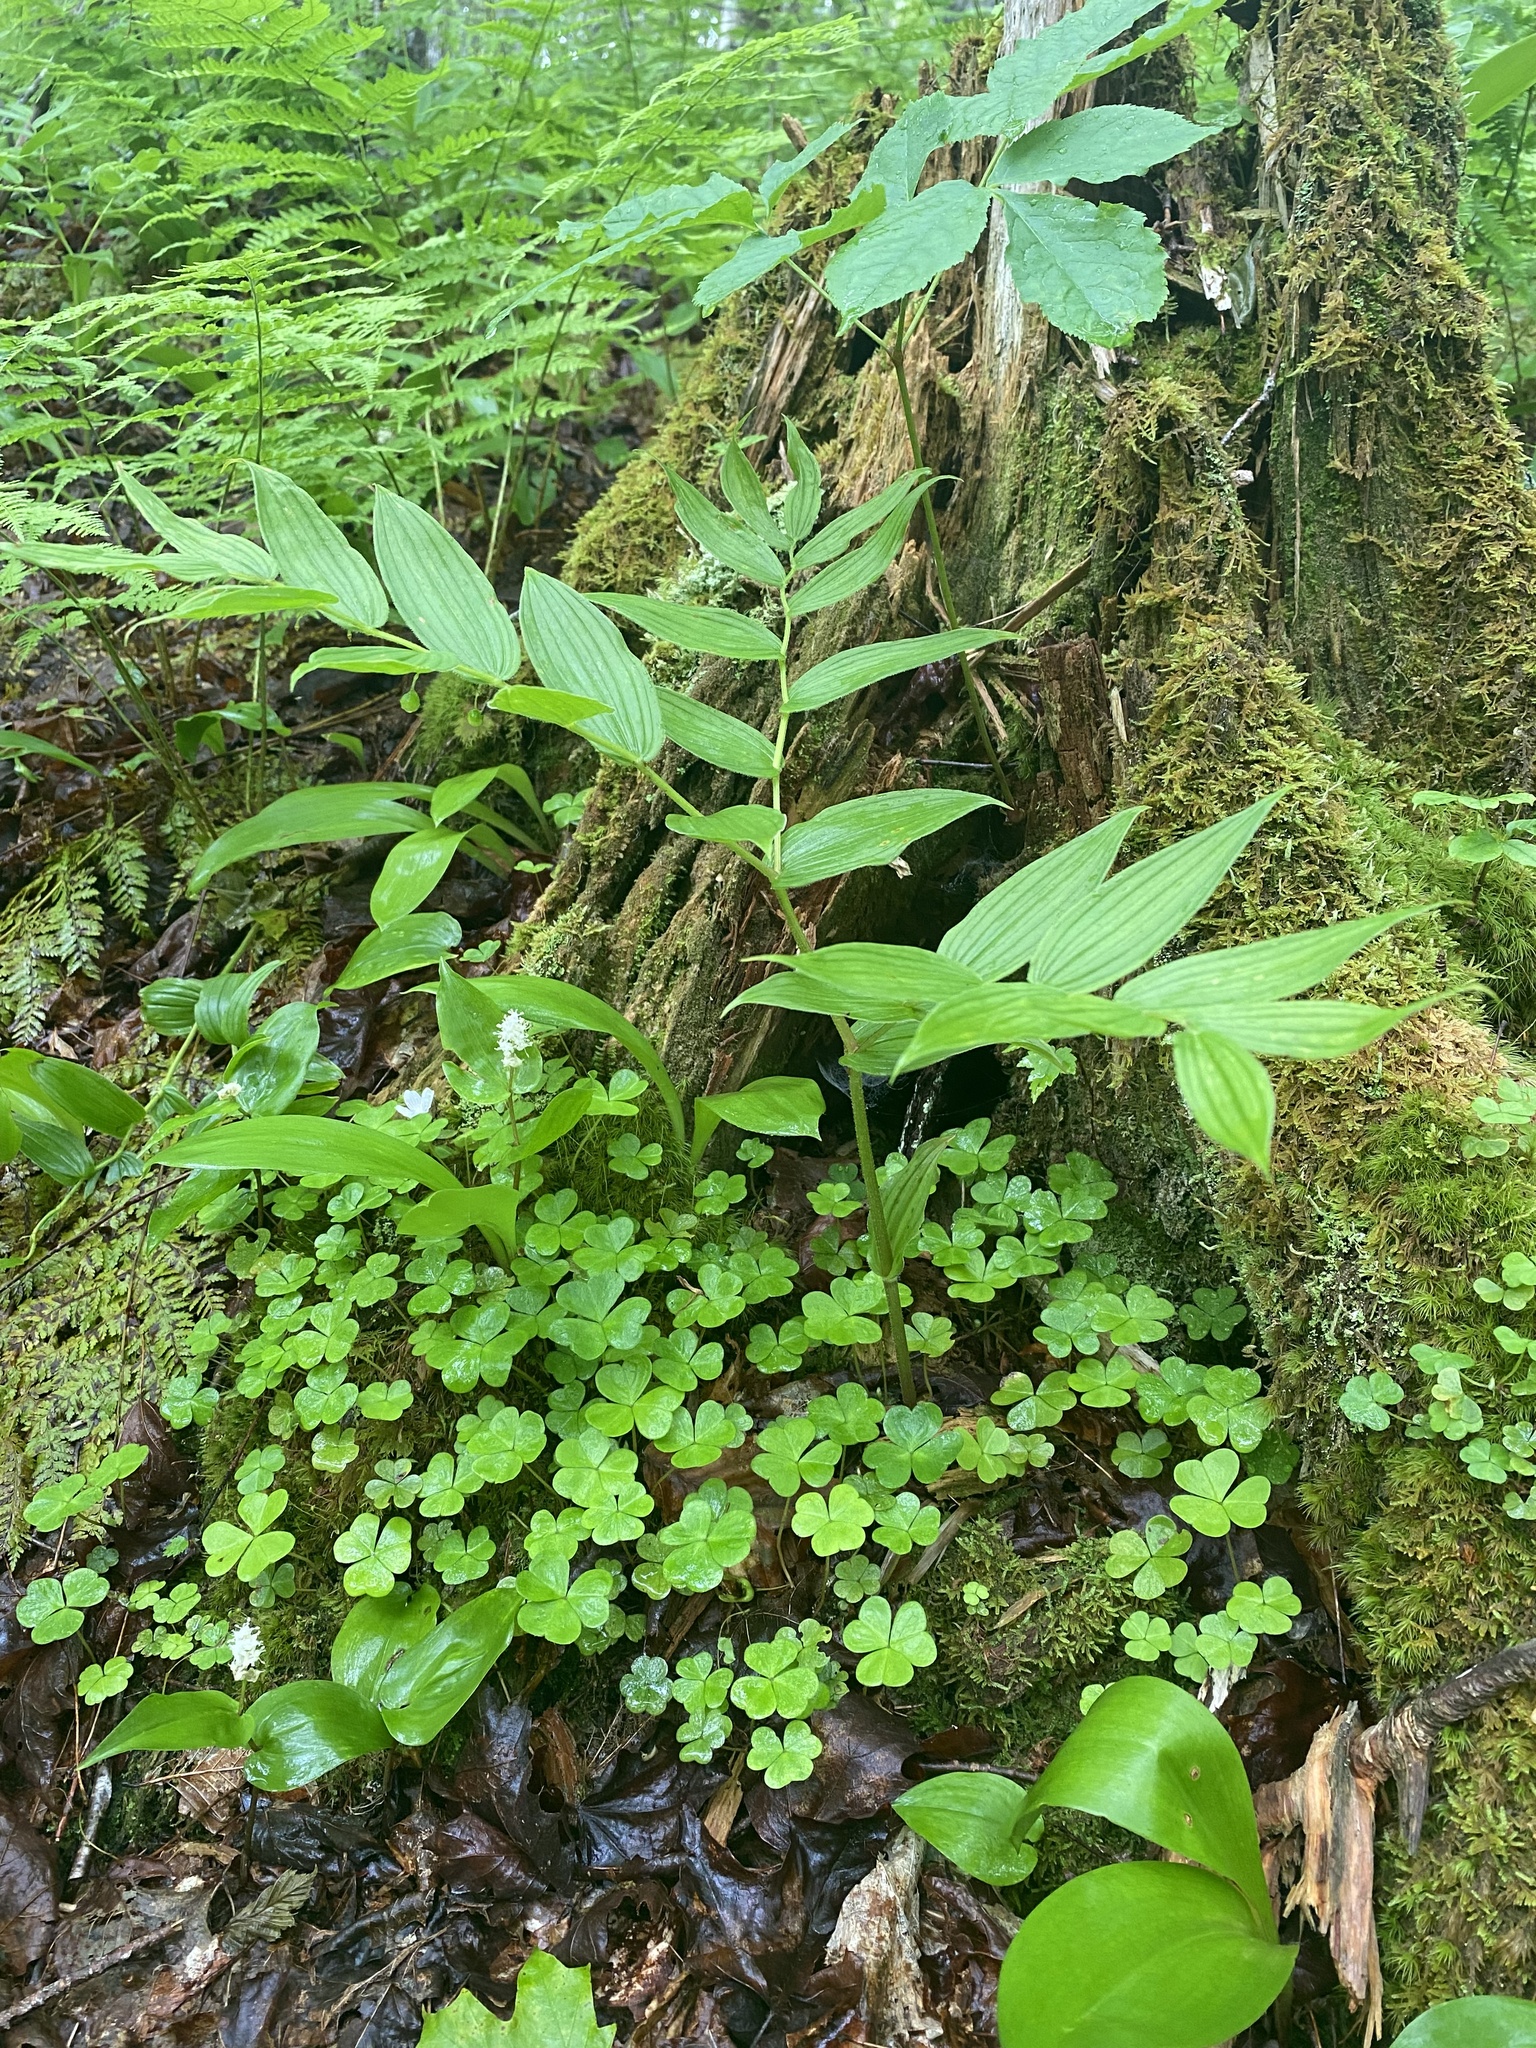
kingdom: Plantae
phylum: Tracheophyta
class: Liliopsida
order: Liliales
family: Liliaceae
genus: Streptopus
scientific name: Streptopus lanceolatus
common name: Rose mandarin
